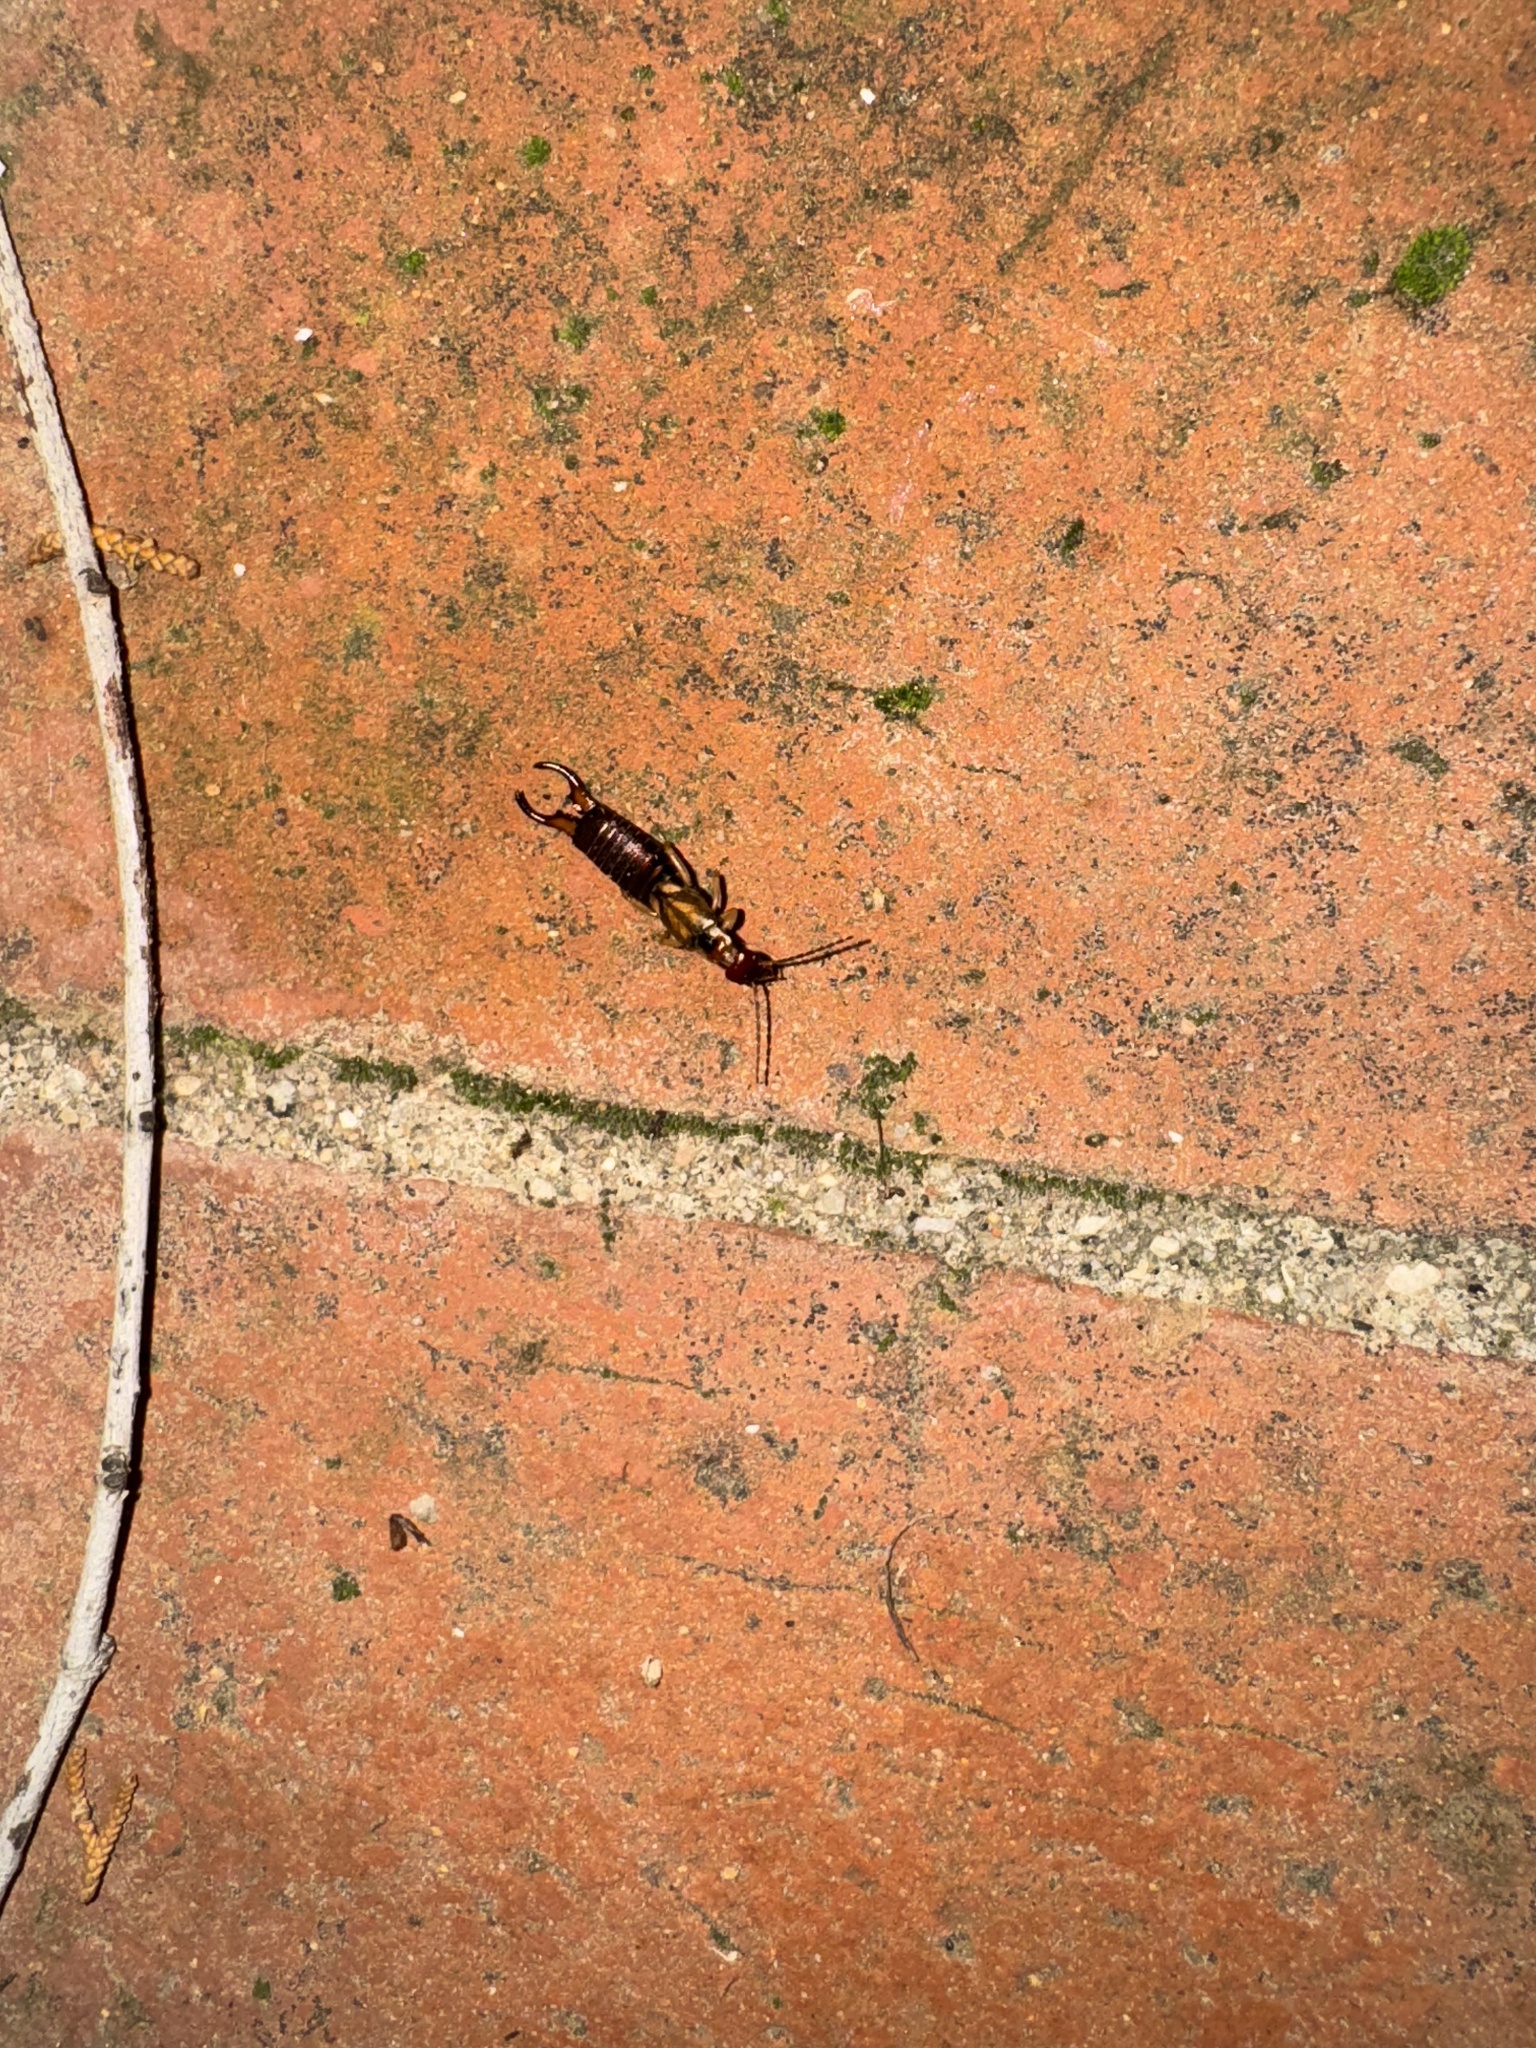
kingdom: Animalia
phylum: Arthropoda
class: Insecta
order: Dermaptera
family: Forficulidae
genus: Forficula
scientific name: Forficula dentata
